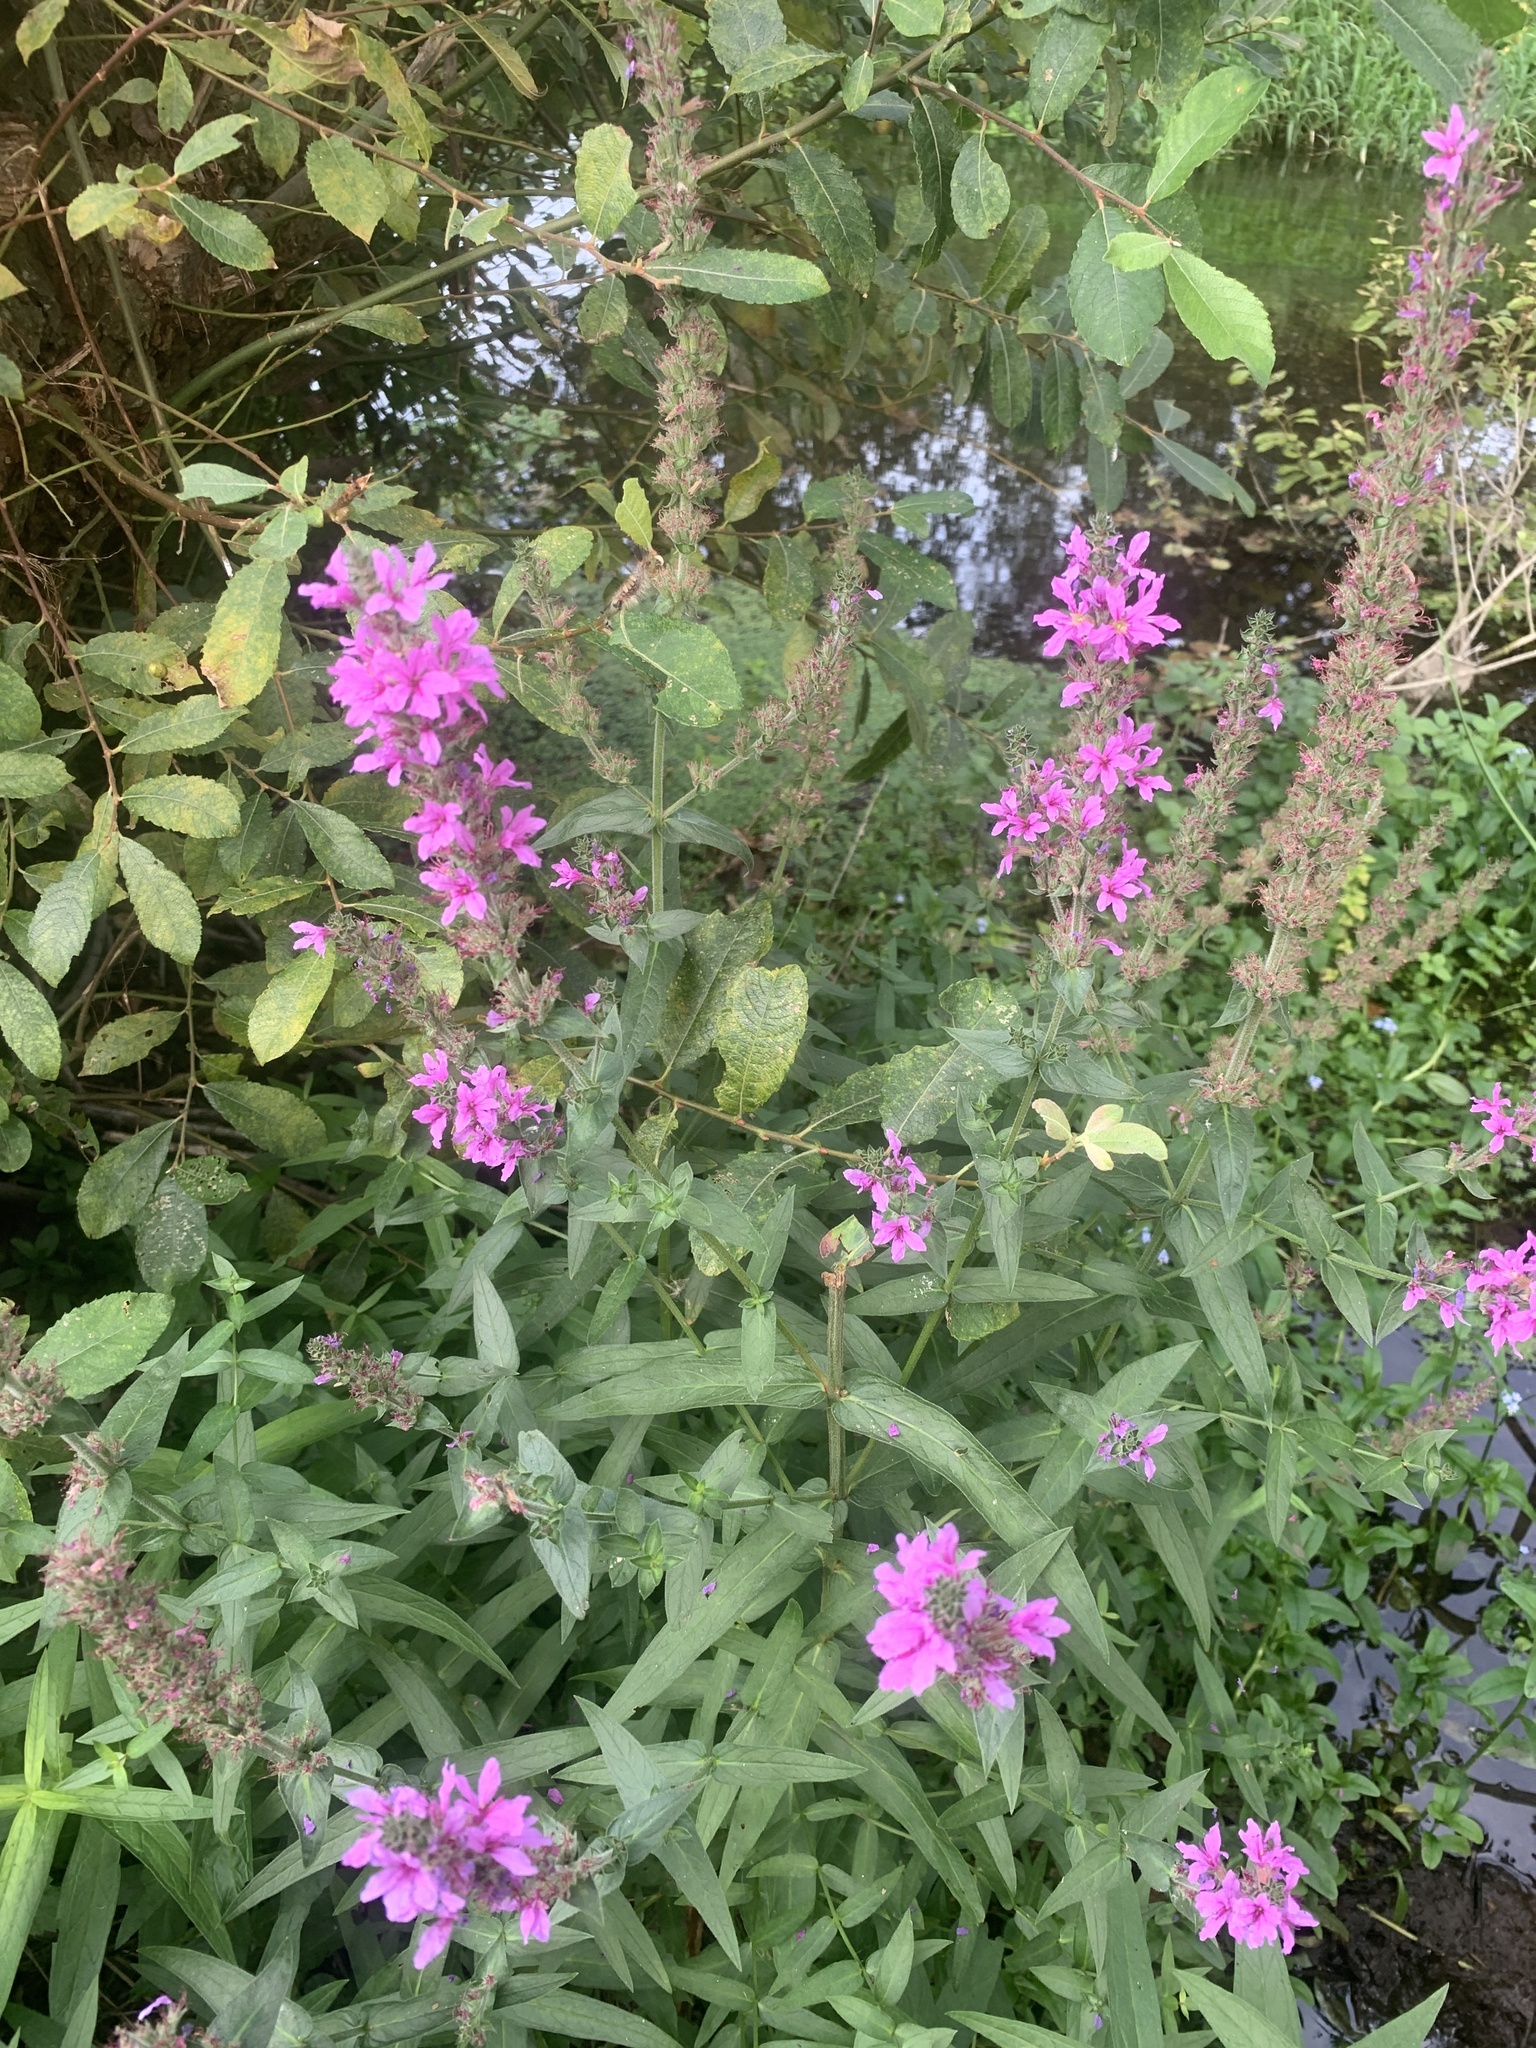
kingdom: Plantae
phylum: Tracheophyta
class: Magnoliopsida
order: Myrtales
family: Lythraceae
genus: Lythrum
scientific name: Lythrum salicaria
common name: Purple loosestrife
